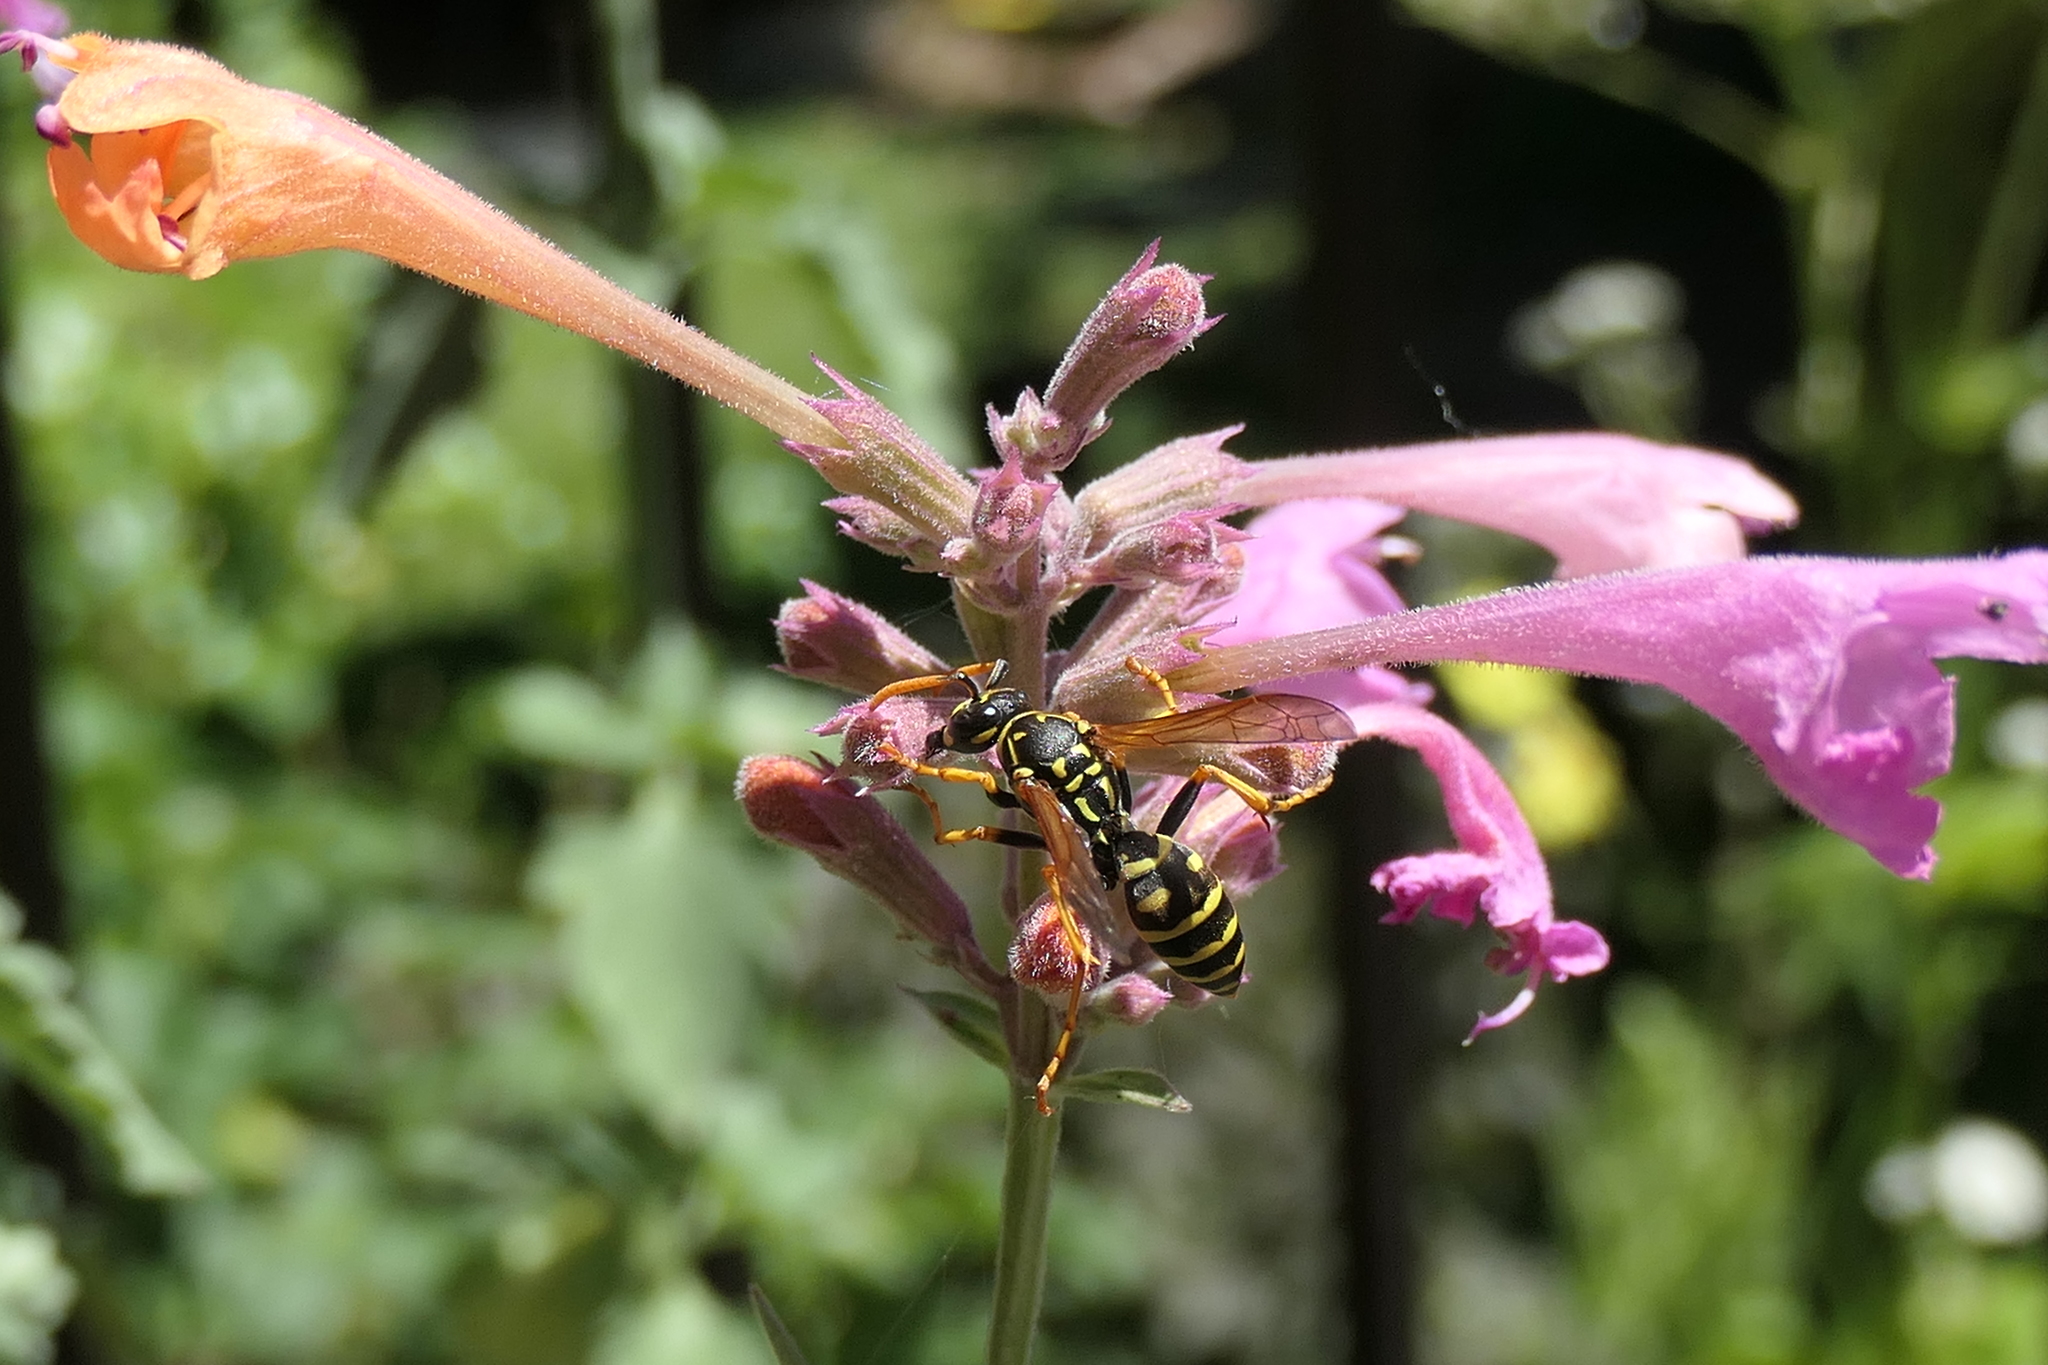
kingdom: Animalia
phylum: Arthropoda
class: Insecta
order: Hymenoptera
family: Eumenidae
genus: Polistes
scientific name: Polistes dominula
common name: Paper wasp
